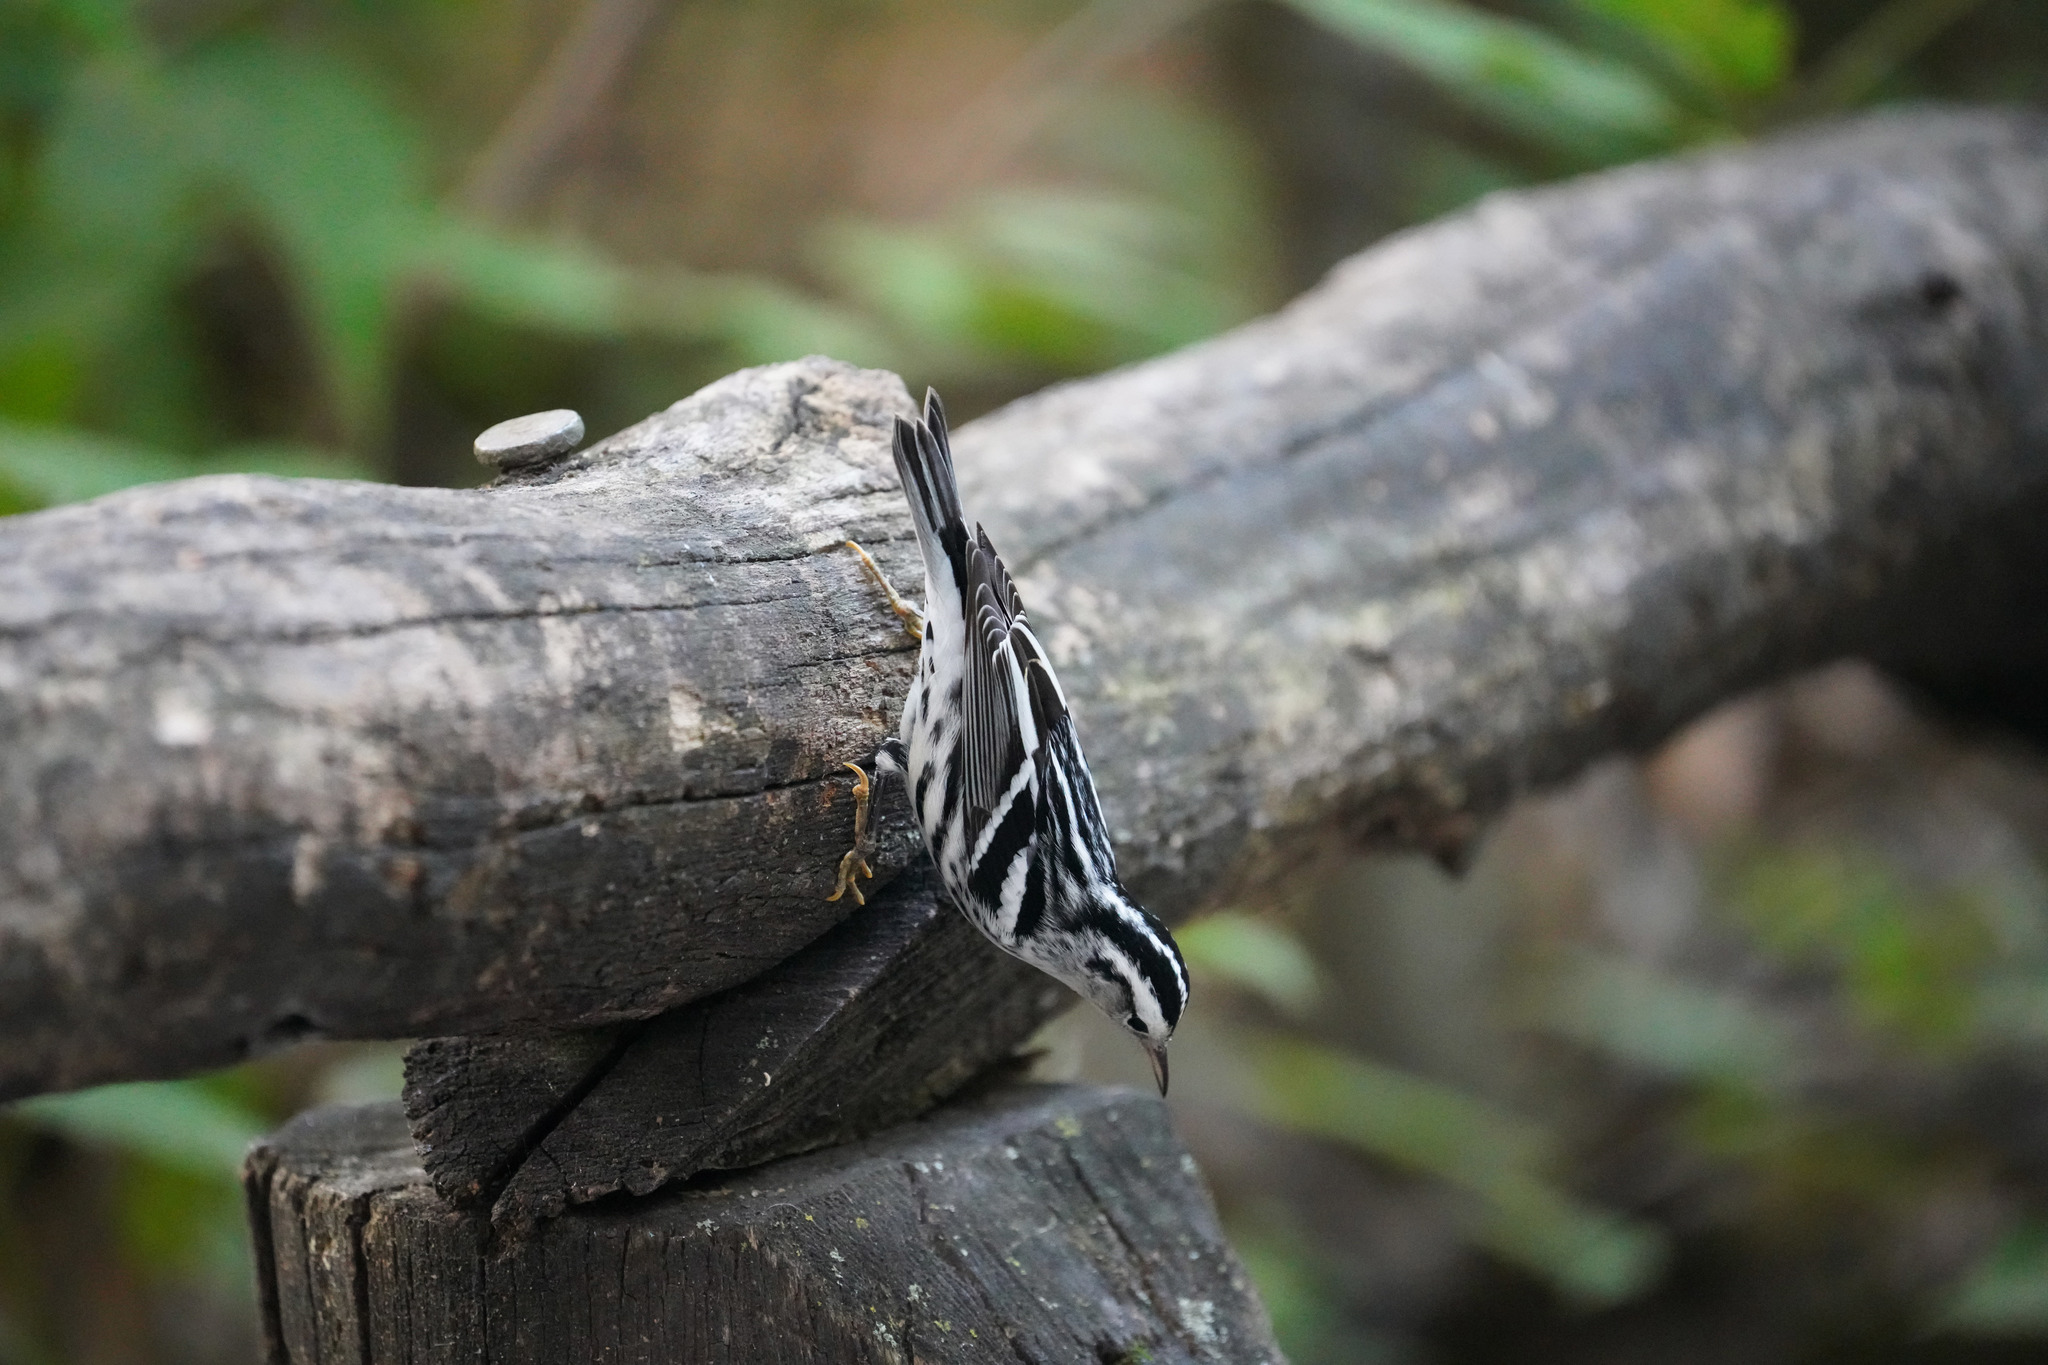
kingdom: Animalia
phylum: Chordata
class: Aves
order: Passeriformes
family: Parulidae
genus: Mniotilta
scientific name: Mniotilta varia
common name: Black-and-white warbler
